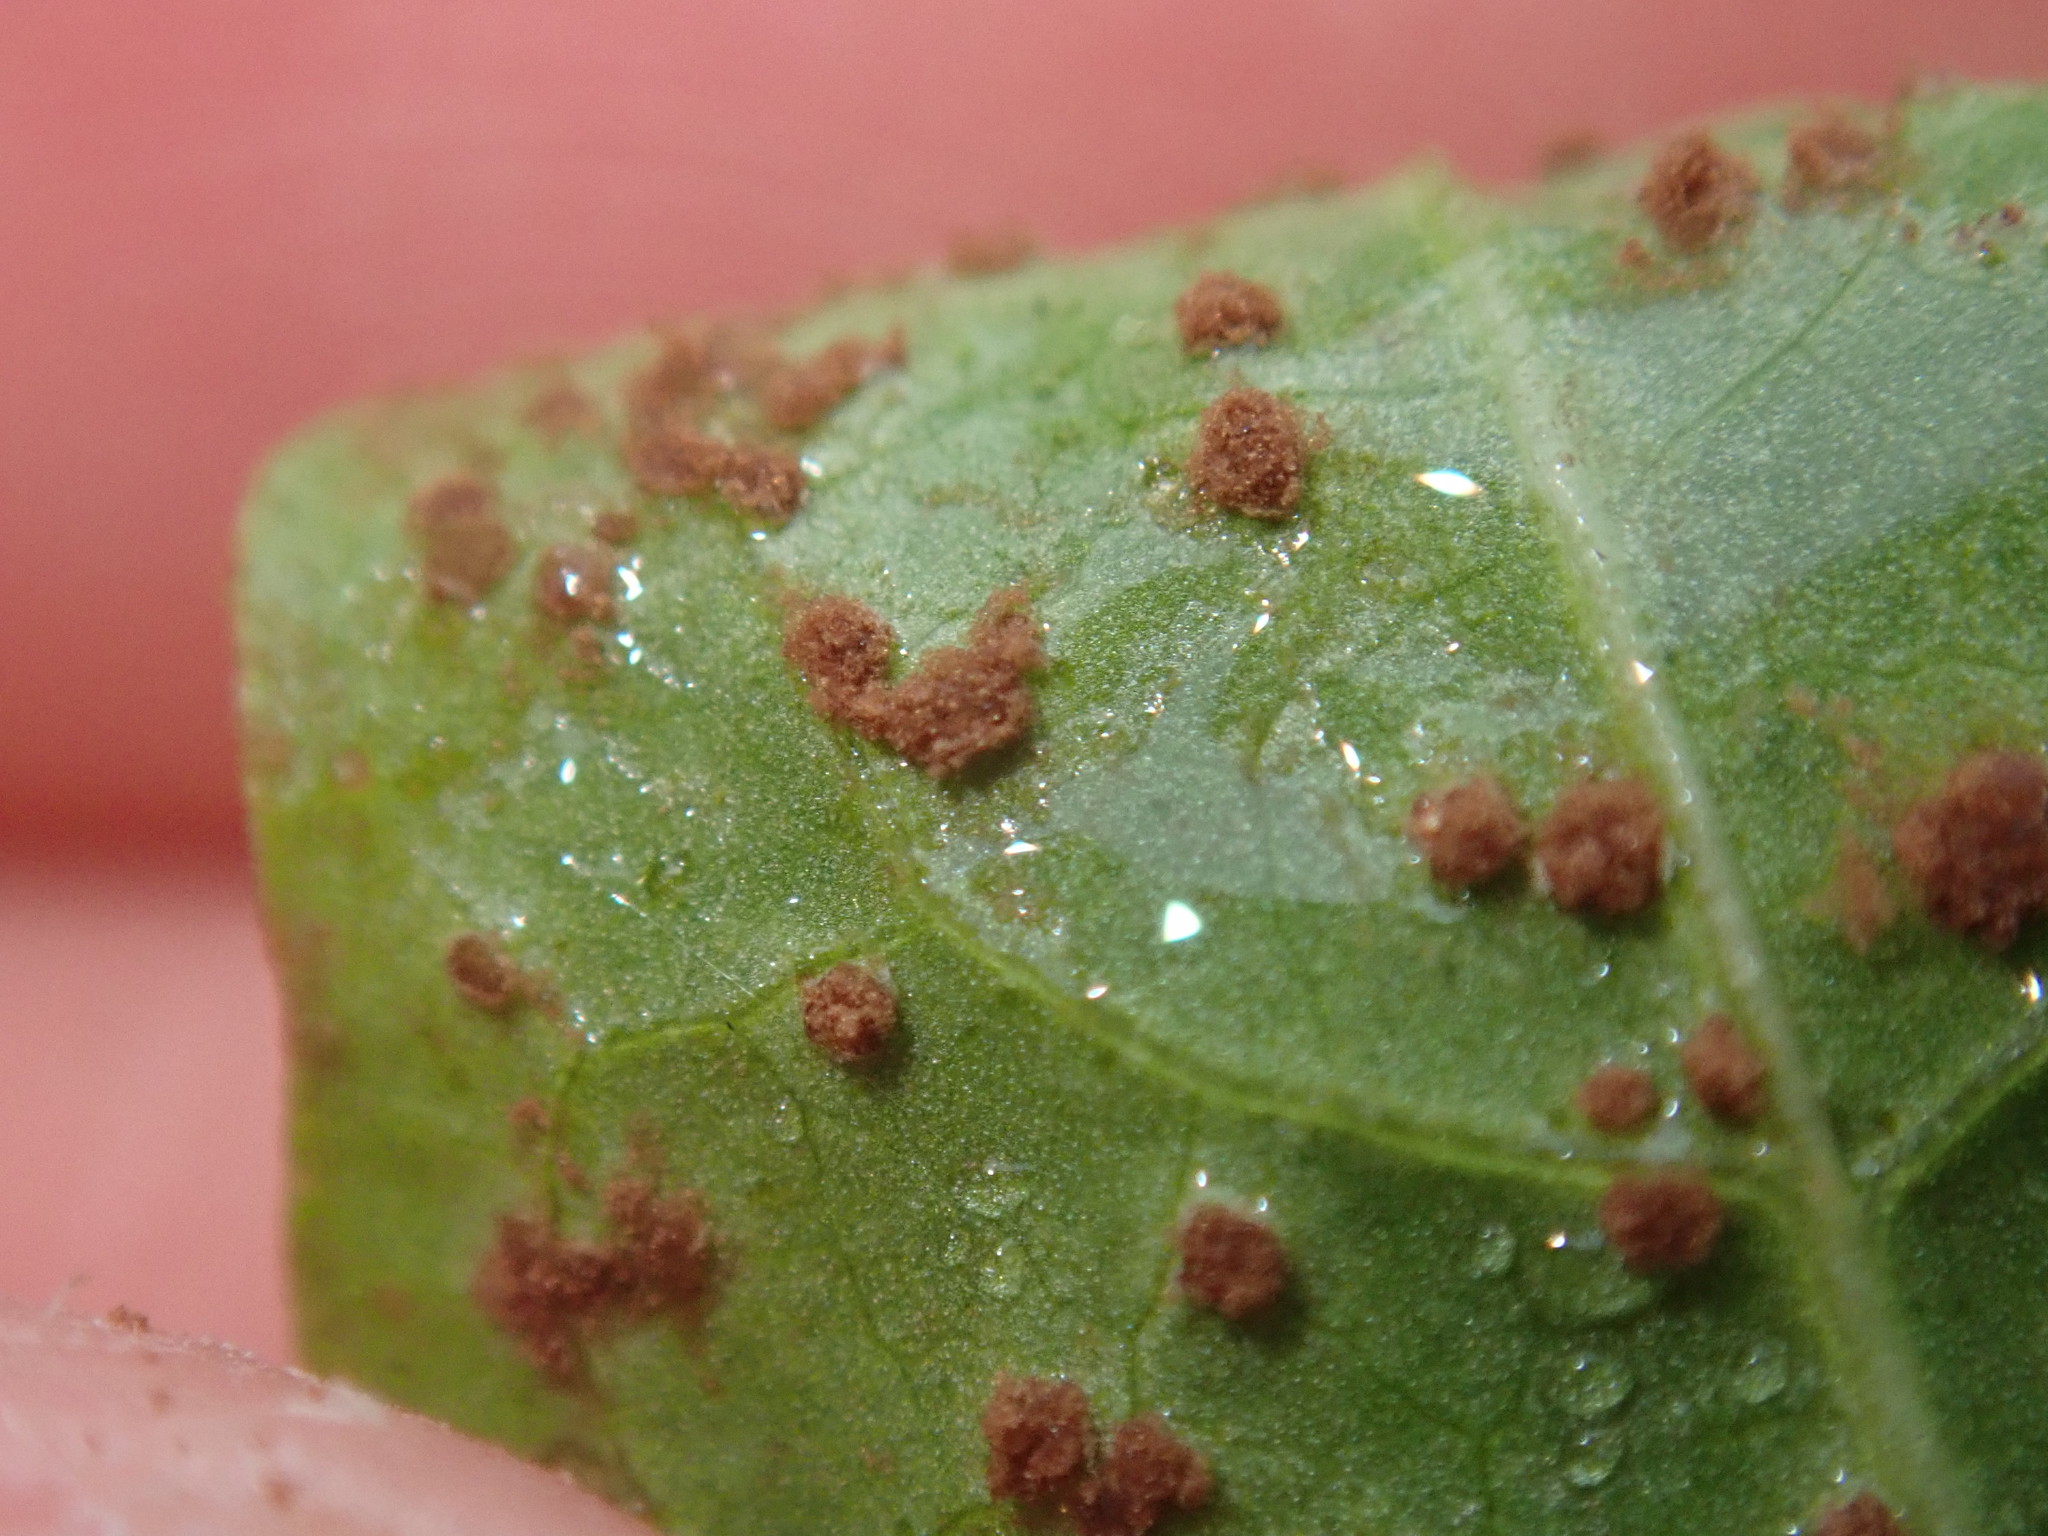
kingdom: Fungi
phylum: Basidiomycota
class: Pucciniomycetes
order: Pucciniales
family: Pucciniaceae
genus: Puccinia
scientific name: Puccinia polygoni-amphibii
